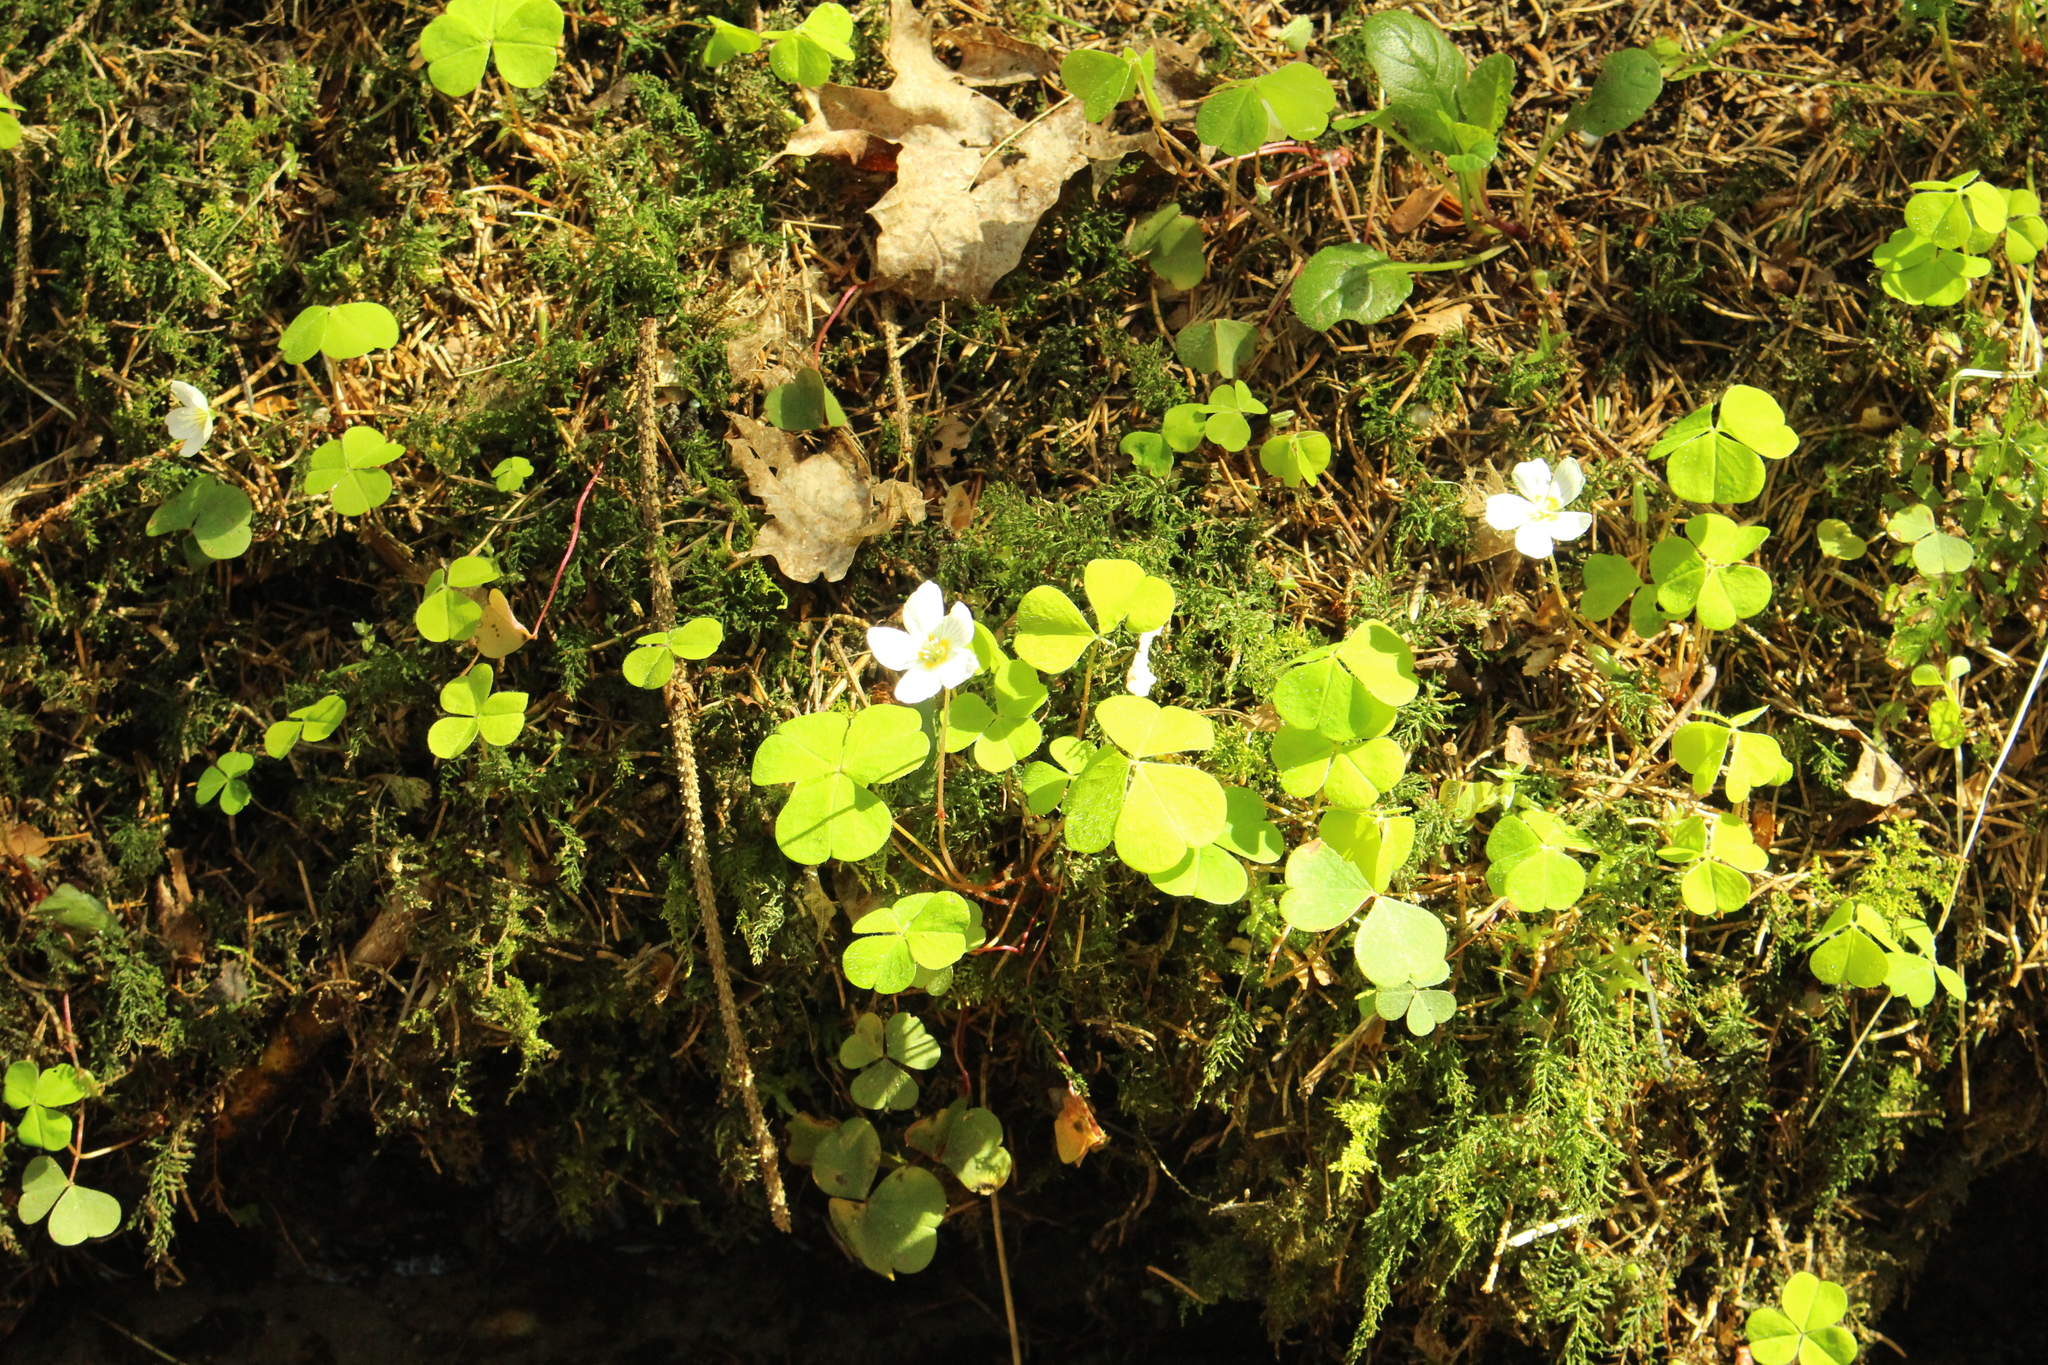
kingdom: Plantae
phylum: Tracheophyta
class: Magnoliopsida
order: Oxalidales
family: Oxalidaceae
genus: Oxalis
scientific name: Oxalis acetosella
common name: Wood-sorrel
